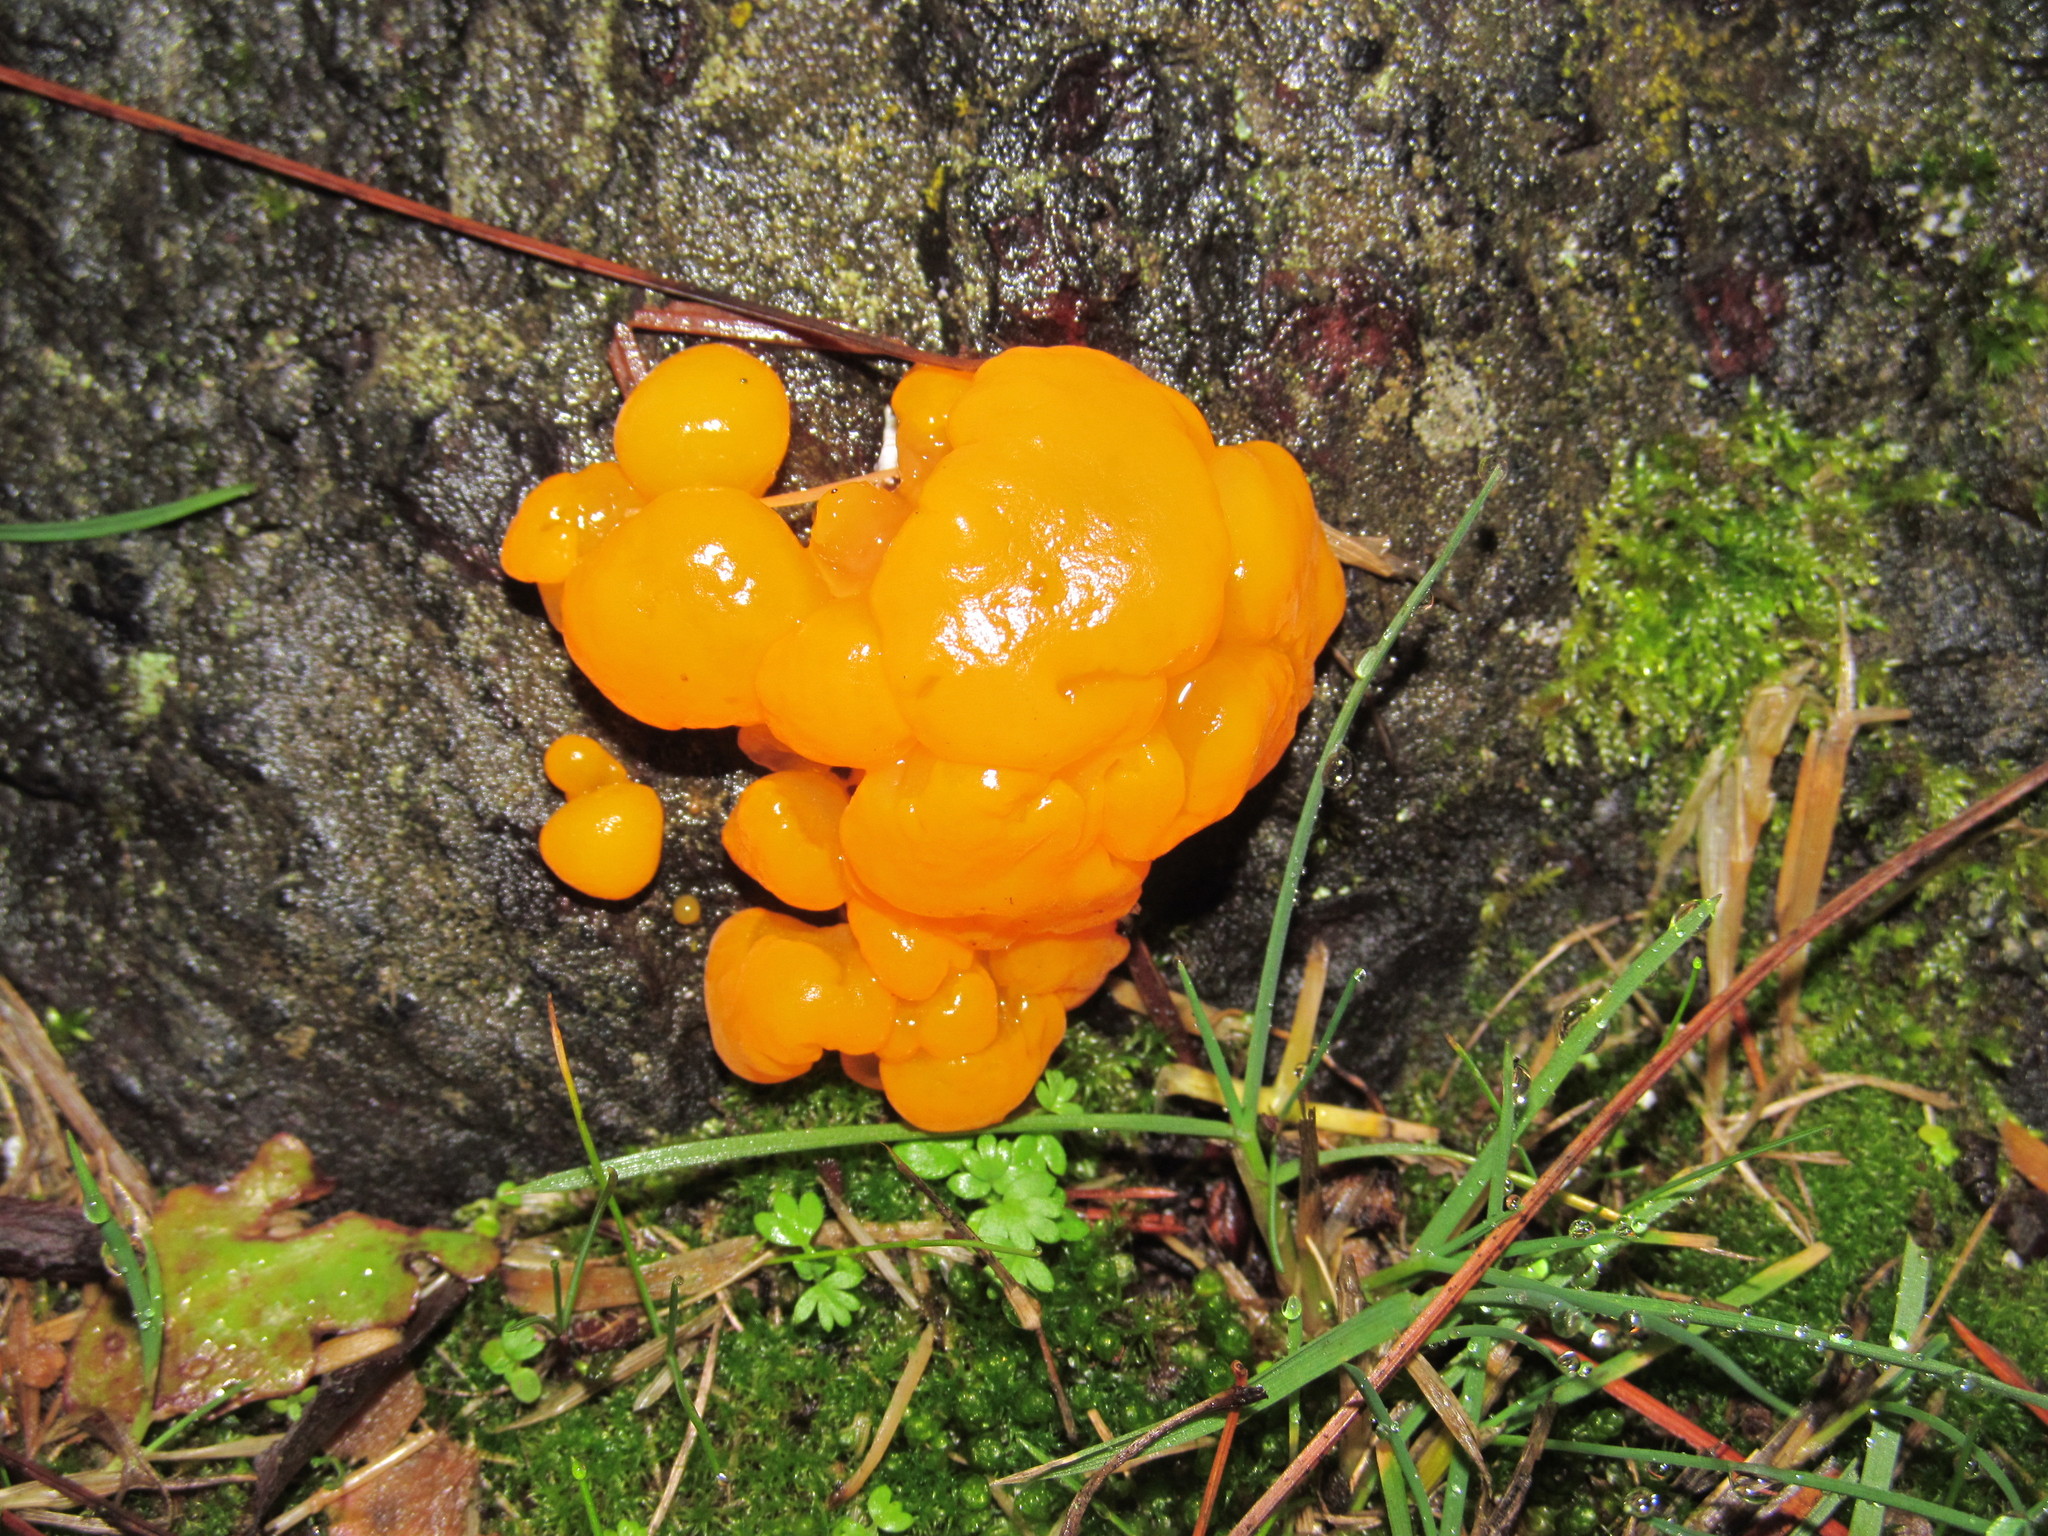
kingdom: Fungi
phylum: Basidiomycota
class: Dacrymycetes
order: Dacrymycetales
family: Dacrymycetaceae
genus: Dacrymyces
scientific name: Dacrymyces chrysospermus
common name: Orange jelly spot
